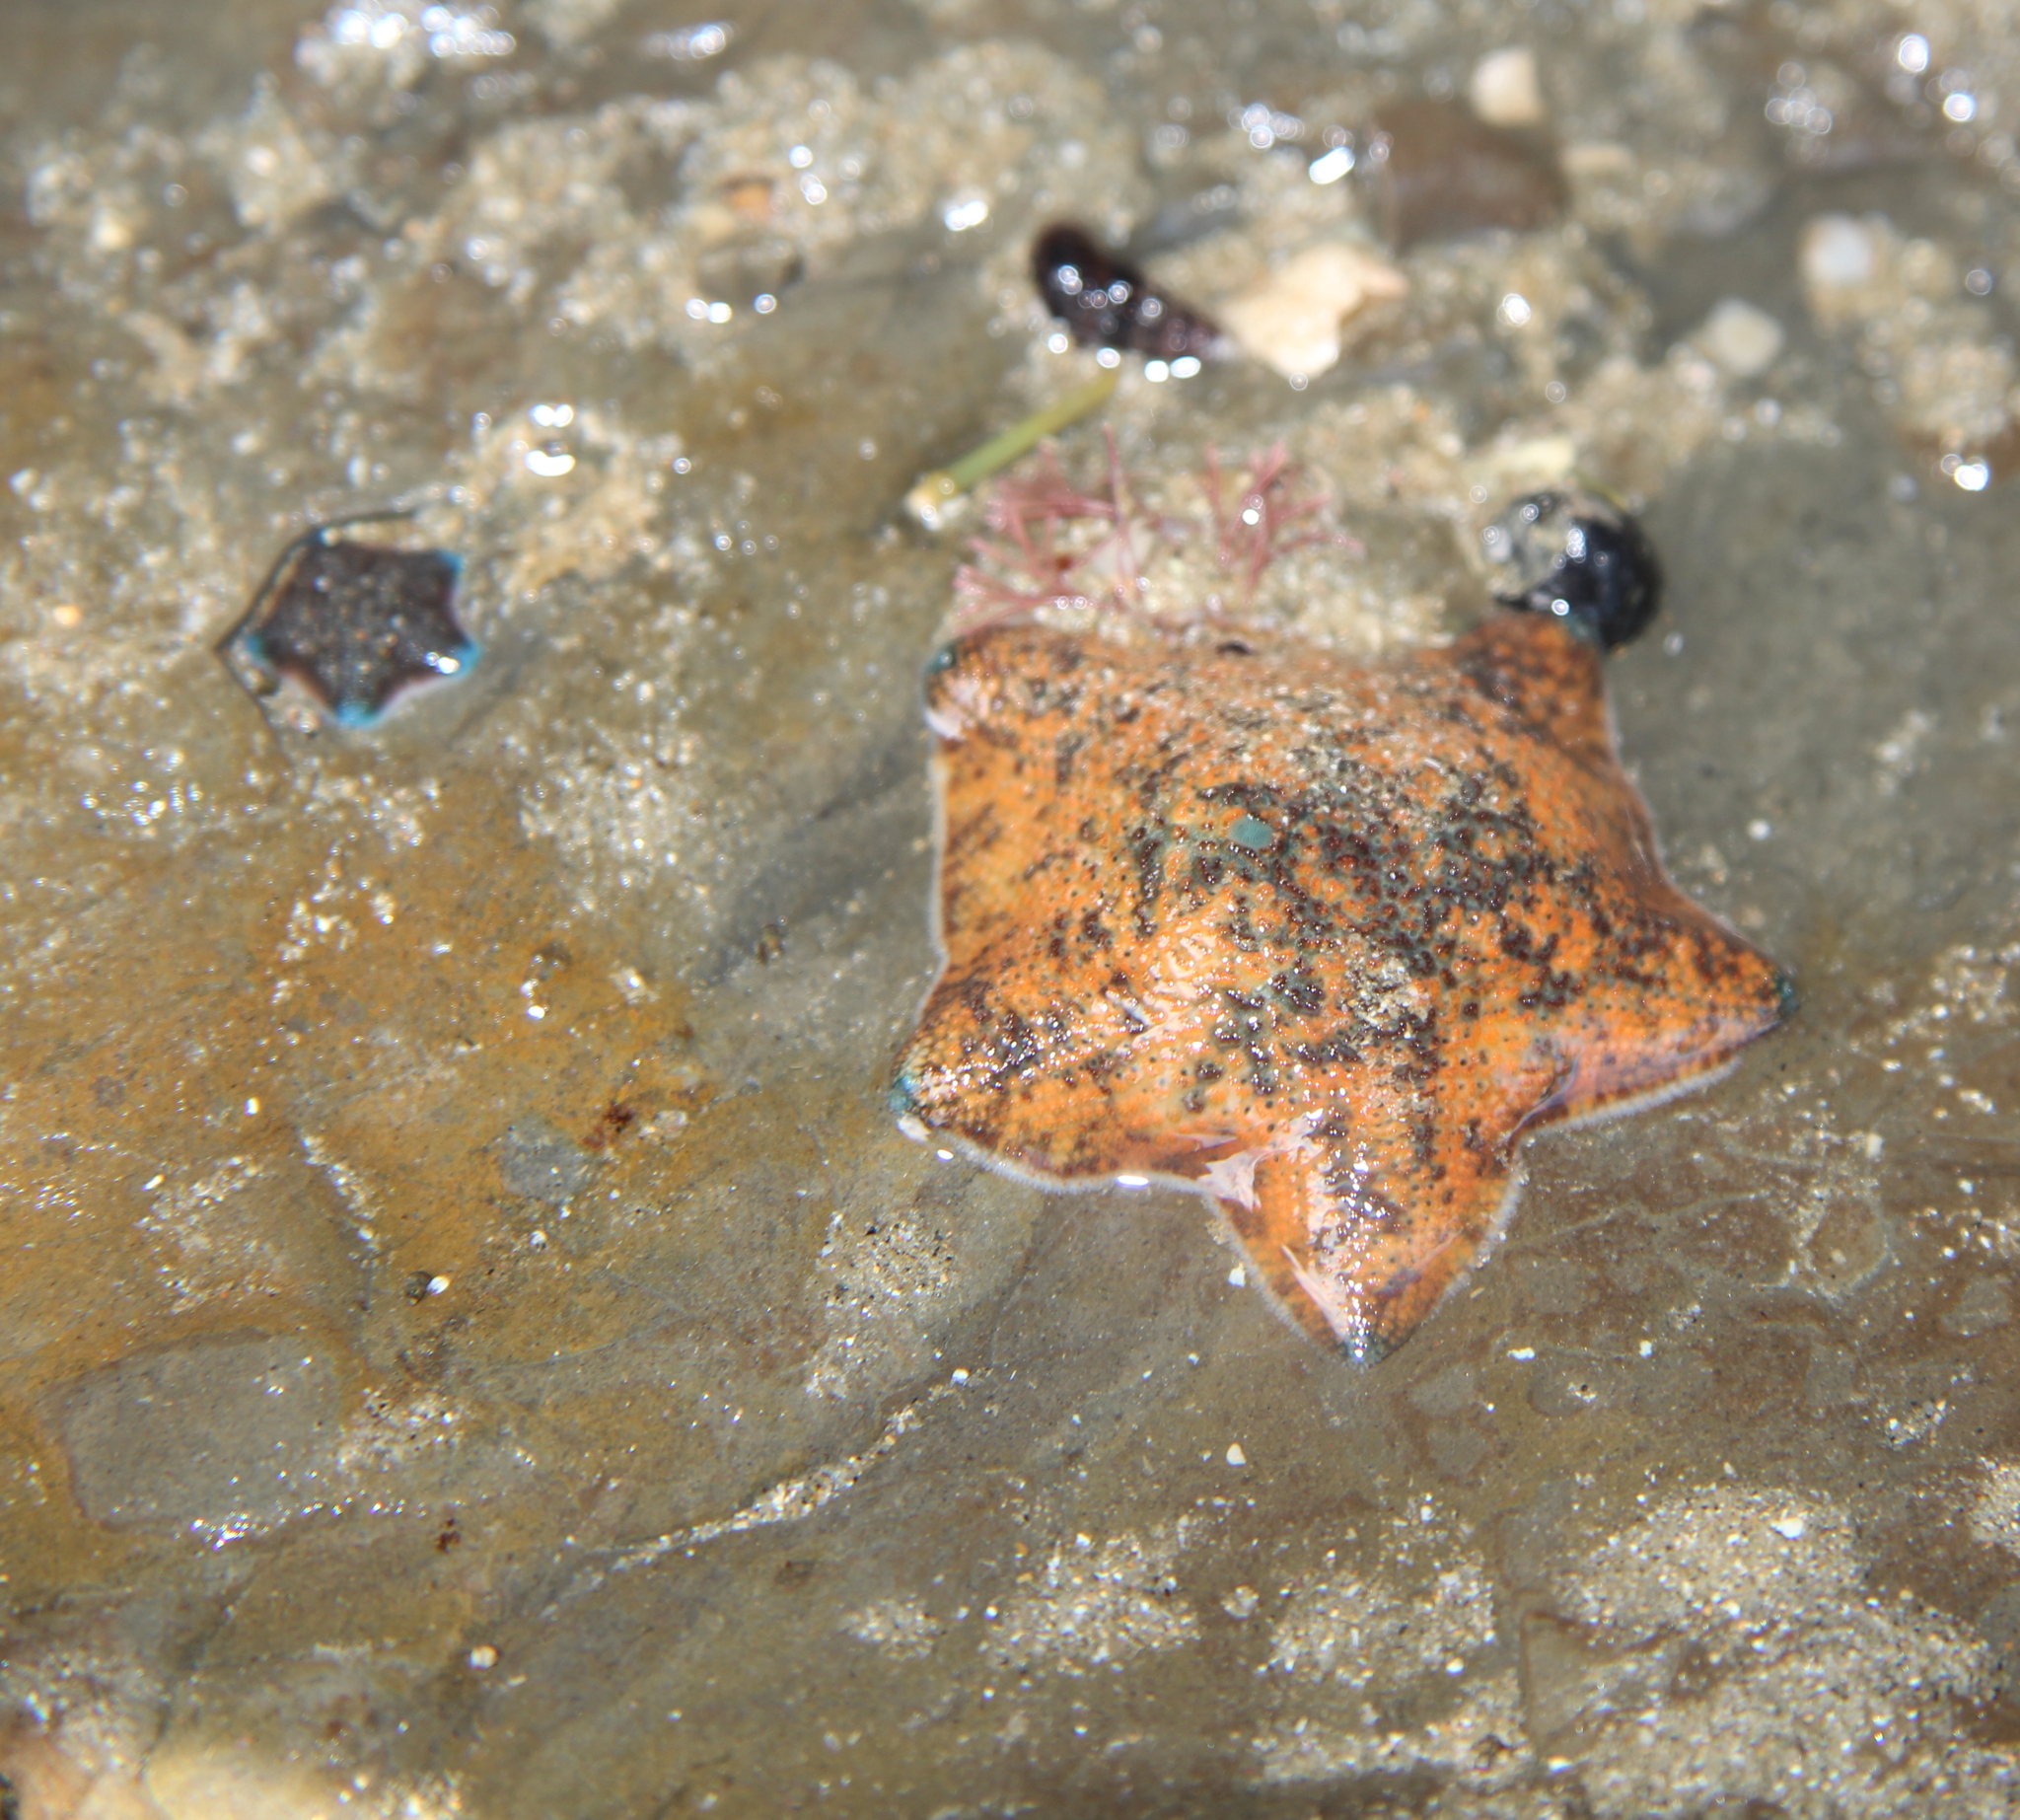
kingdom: Animalia
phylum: Echinodermata
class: Asteroidea
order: Valvatida
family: Asterinidae
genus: Patiriella
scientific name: Patiriella regularis
